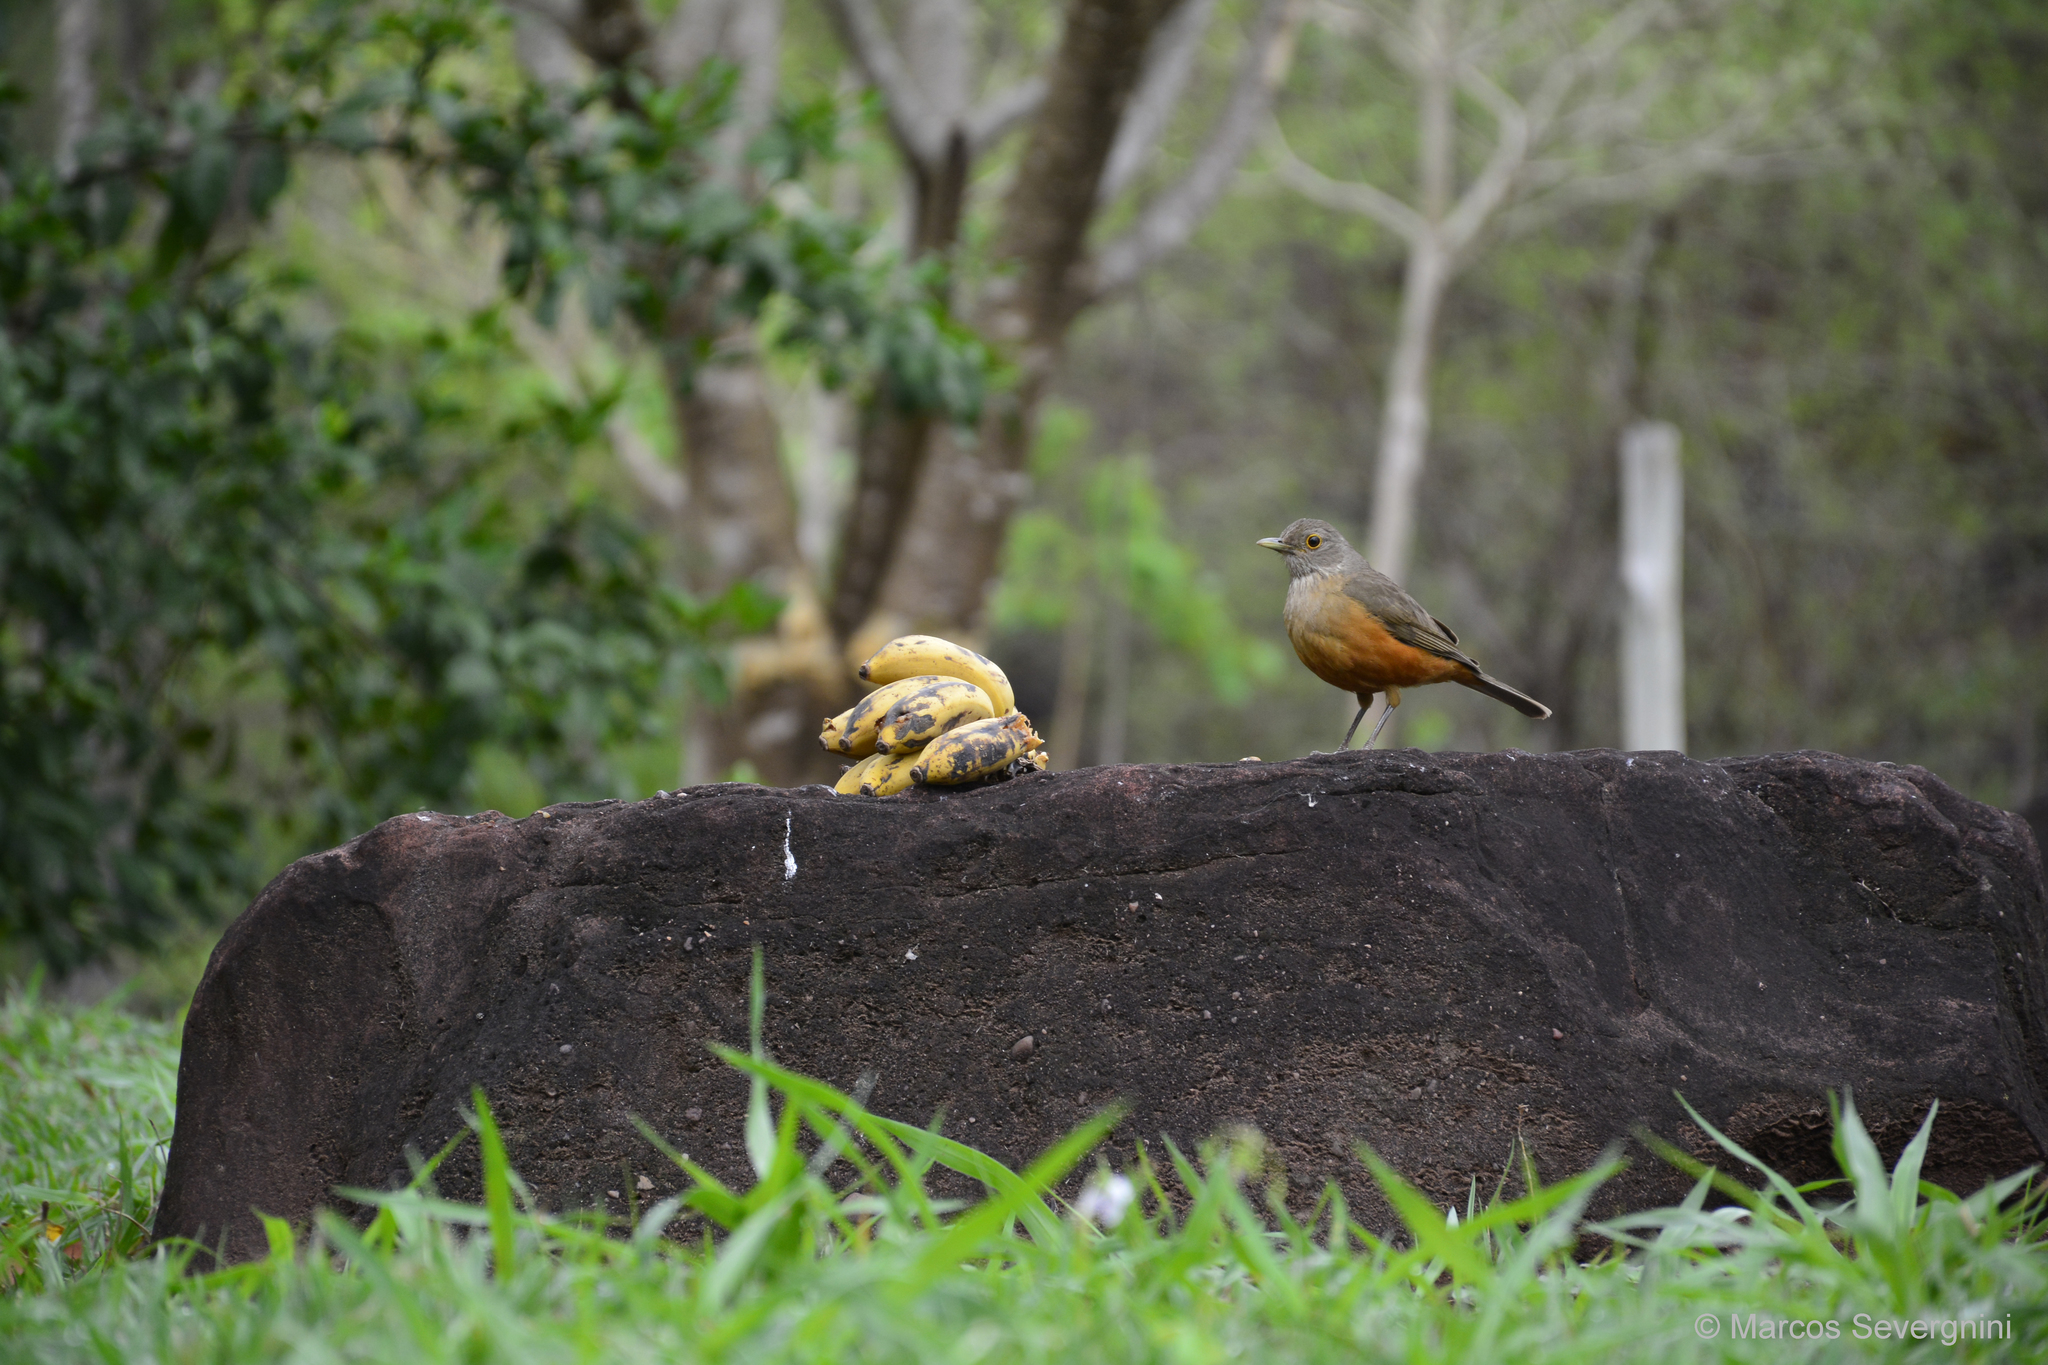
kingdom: Animalia
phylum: Chordata
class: Aves
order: Passeriformes
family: Turdidae
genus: Turdus
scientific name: Turdus rufiventris
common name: Rufous-bellied thrush
